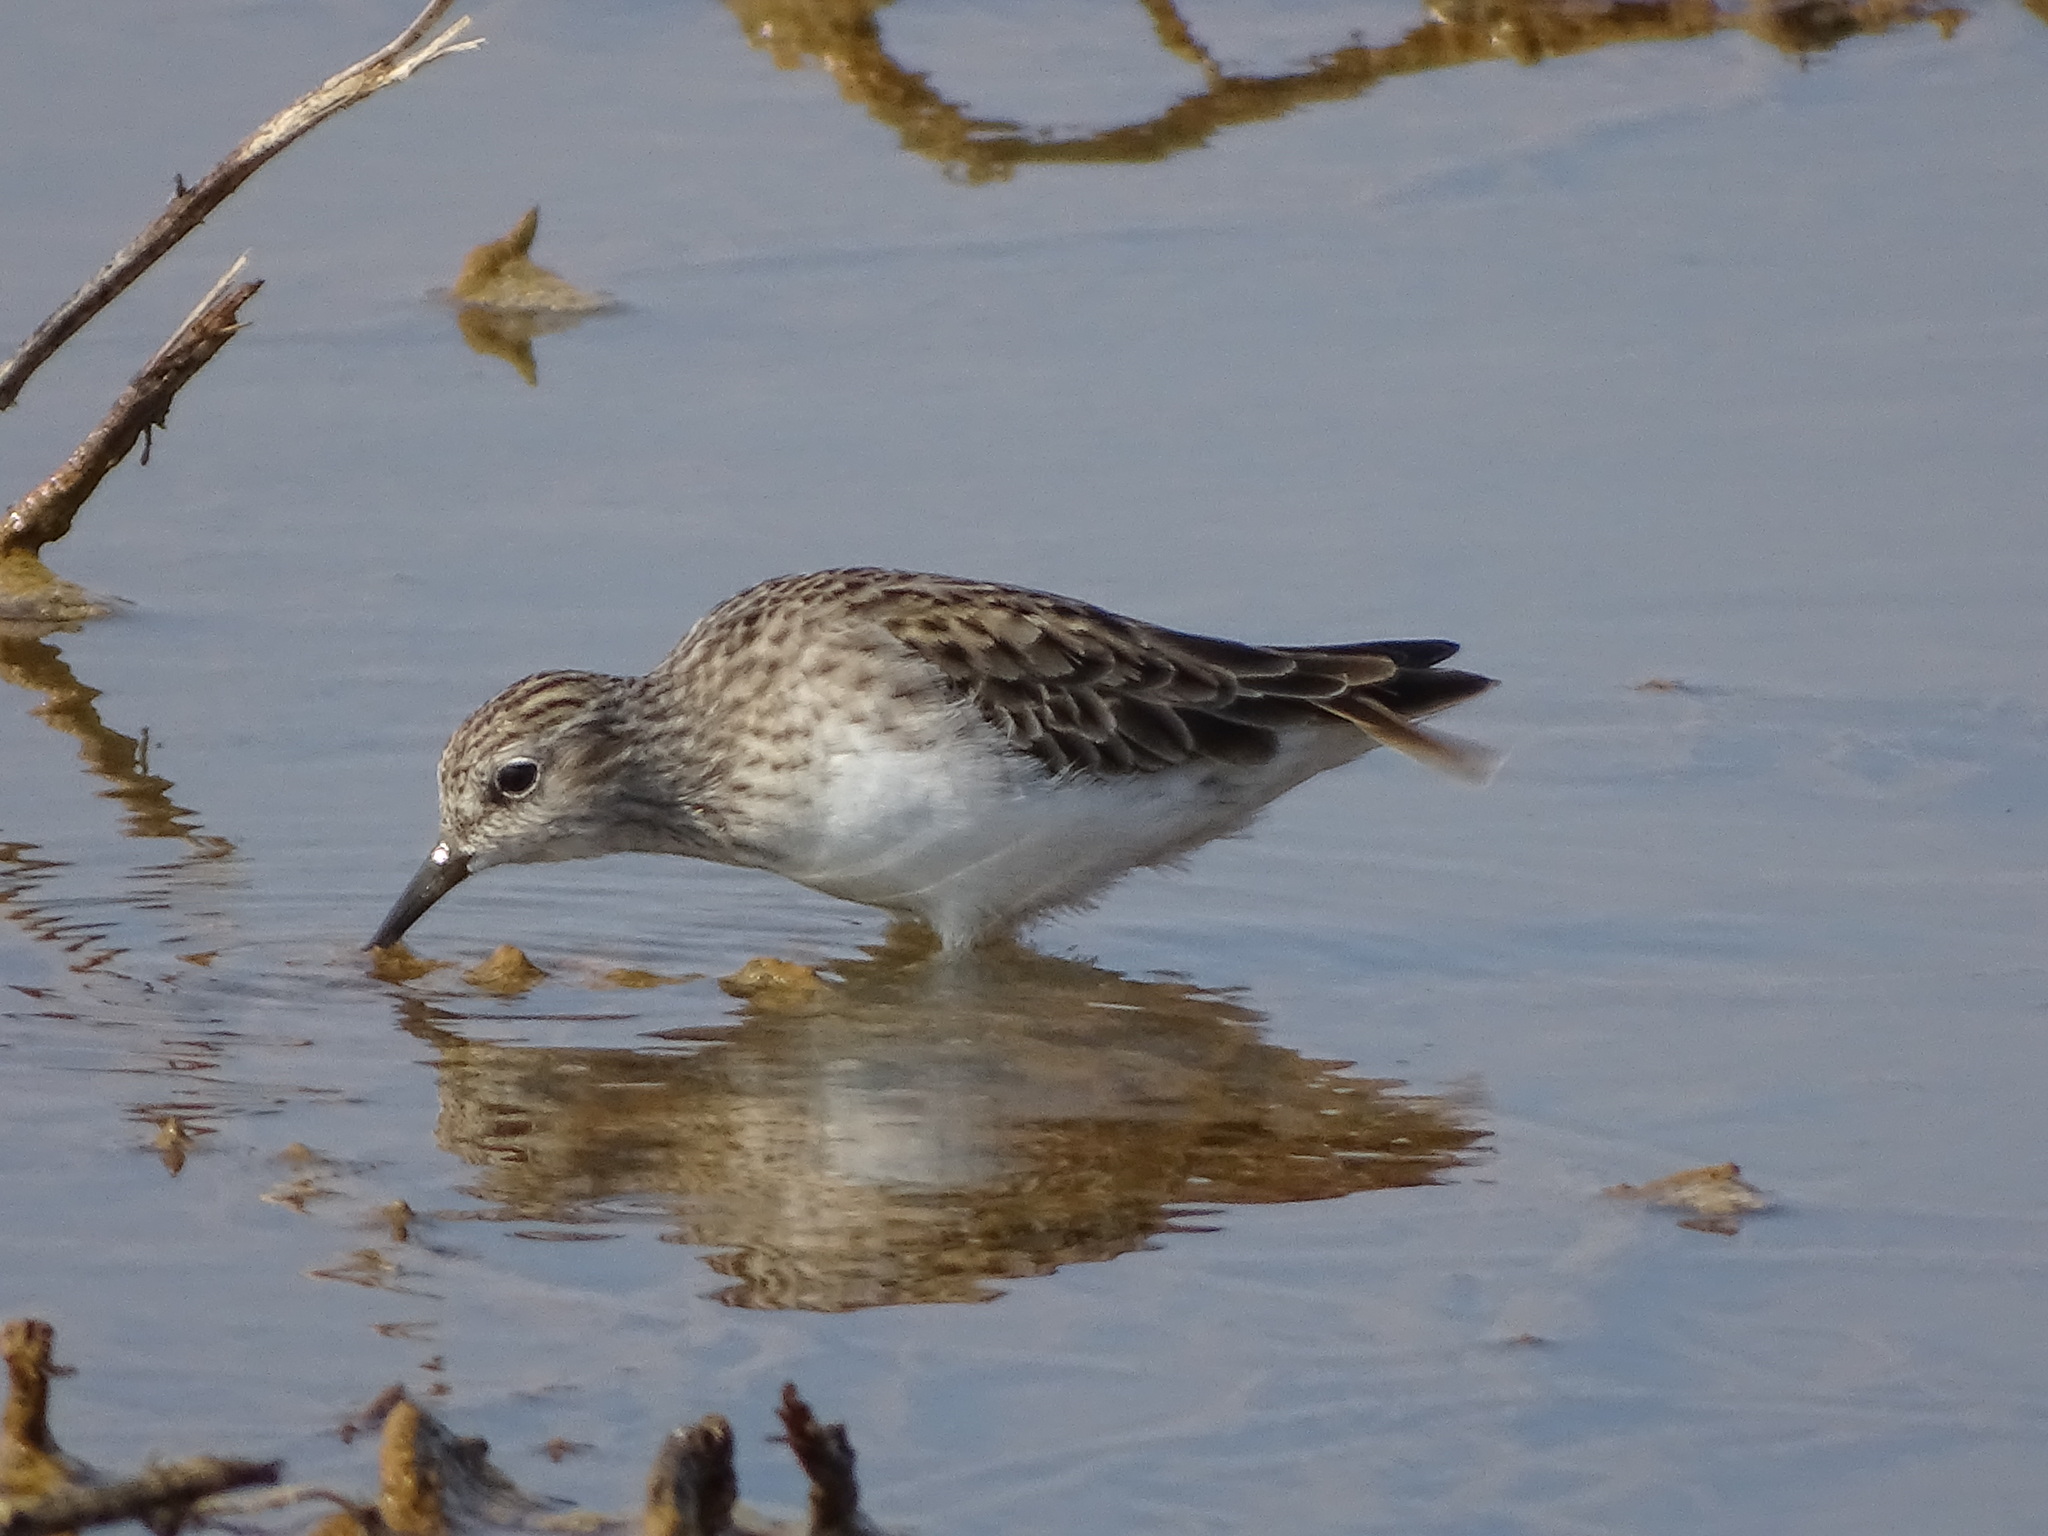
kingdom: Animalia
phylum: Chordata
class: Aves
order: Charadriiformes
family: Scolopacidae
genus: Calidris
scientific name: Calidris subminuta
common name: Long-toed stint
